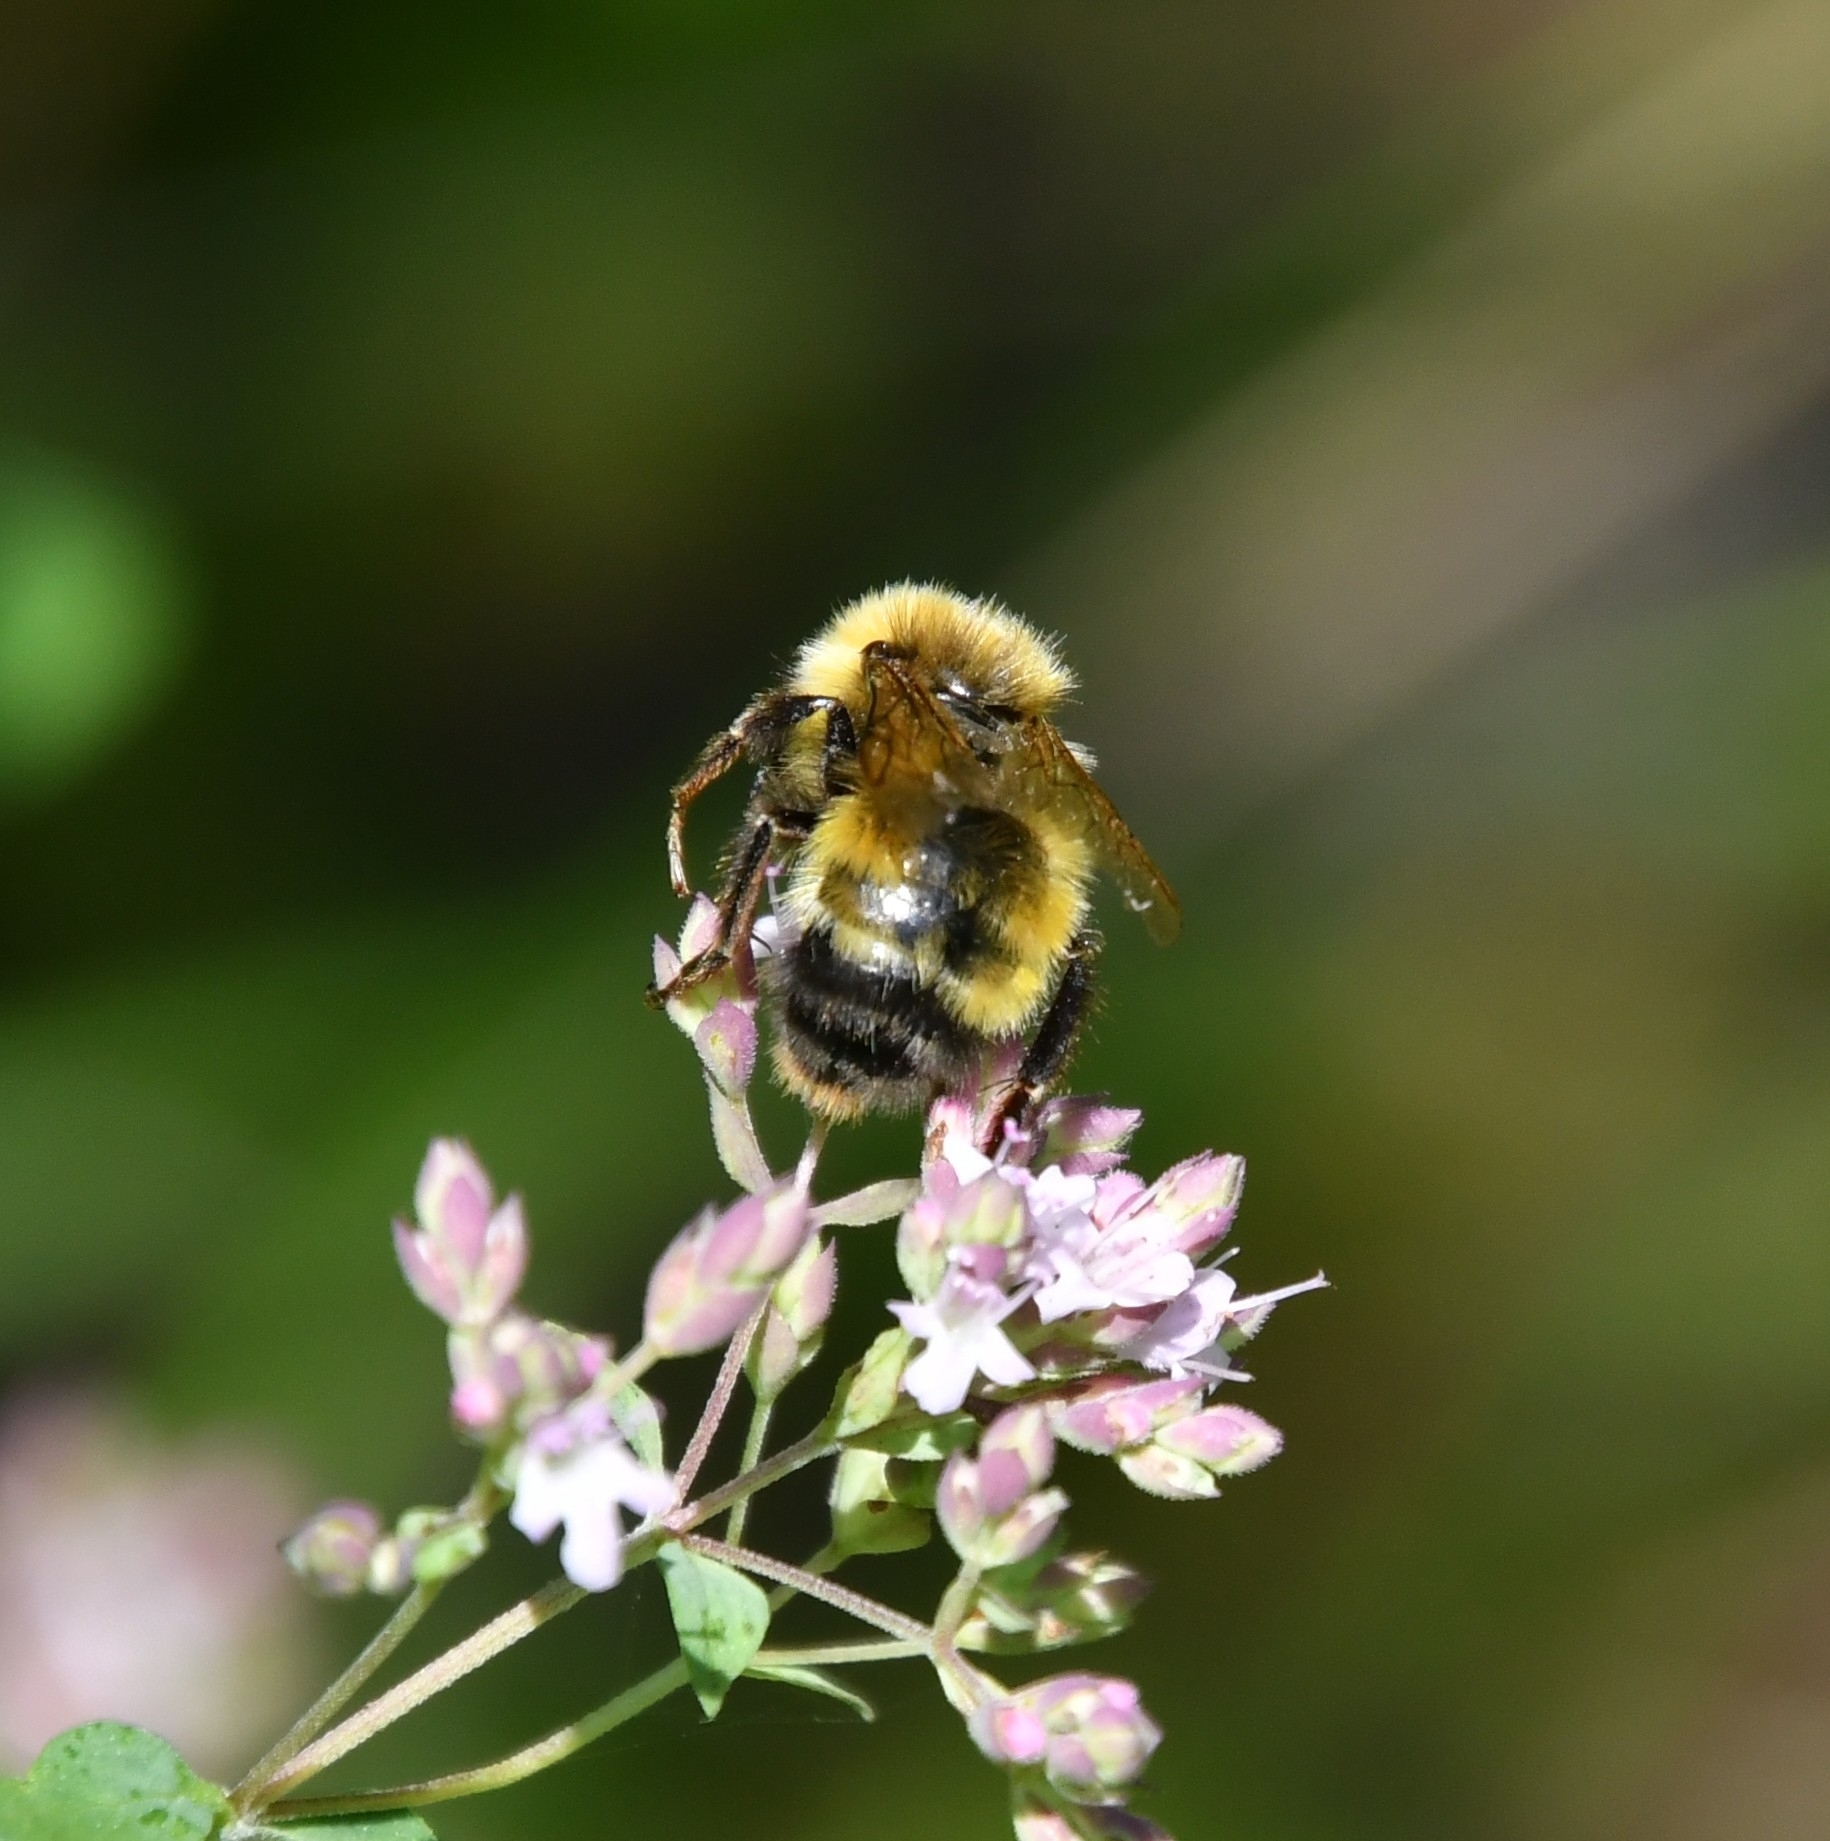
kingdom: Animalia
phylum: Arthropoda
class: Insecta
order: Hymenoptera
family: Apidae
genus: Bombus
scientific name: Bombus haematurus
